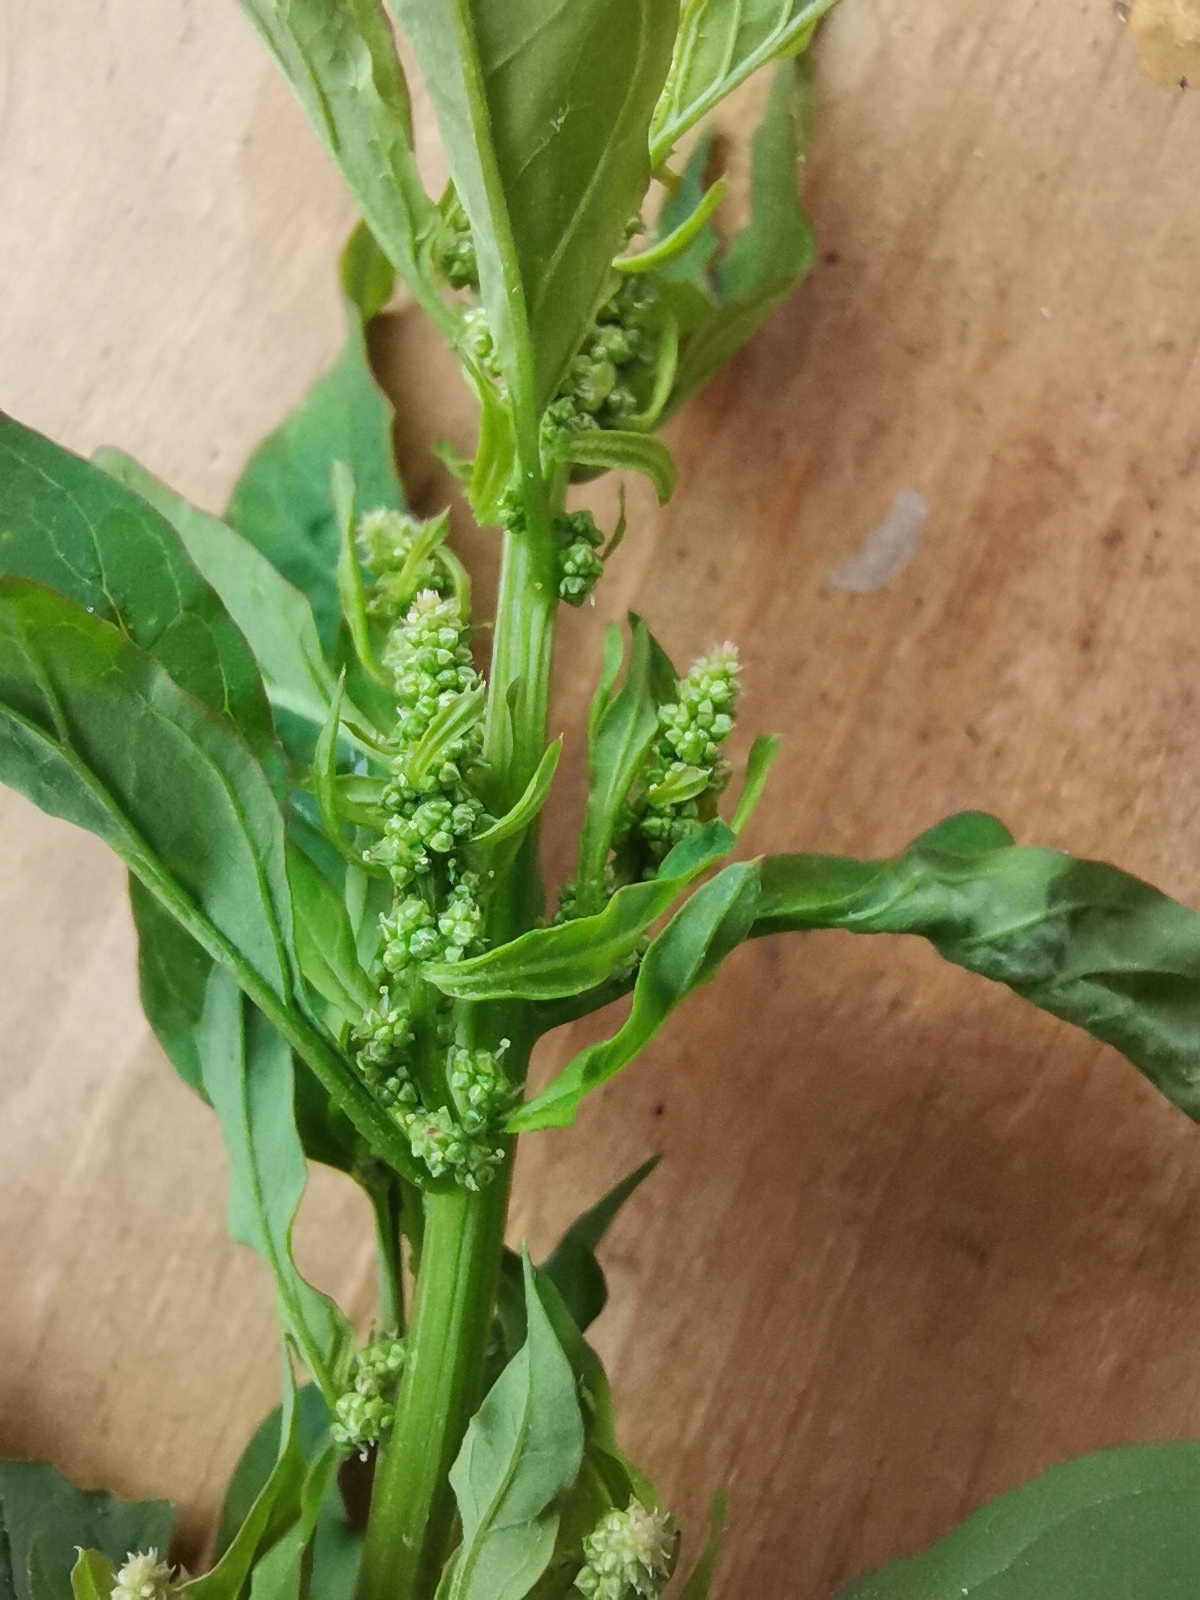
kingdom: Plantae
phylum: Tracheophyta
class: Magnoliopsida
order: Caryophyllales
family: Amaranthaceae
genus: Lipandra
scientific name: Lipandra polysperma
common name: Many-seed goosefoot
